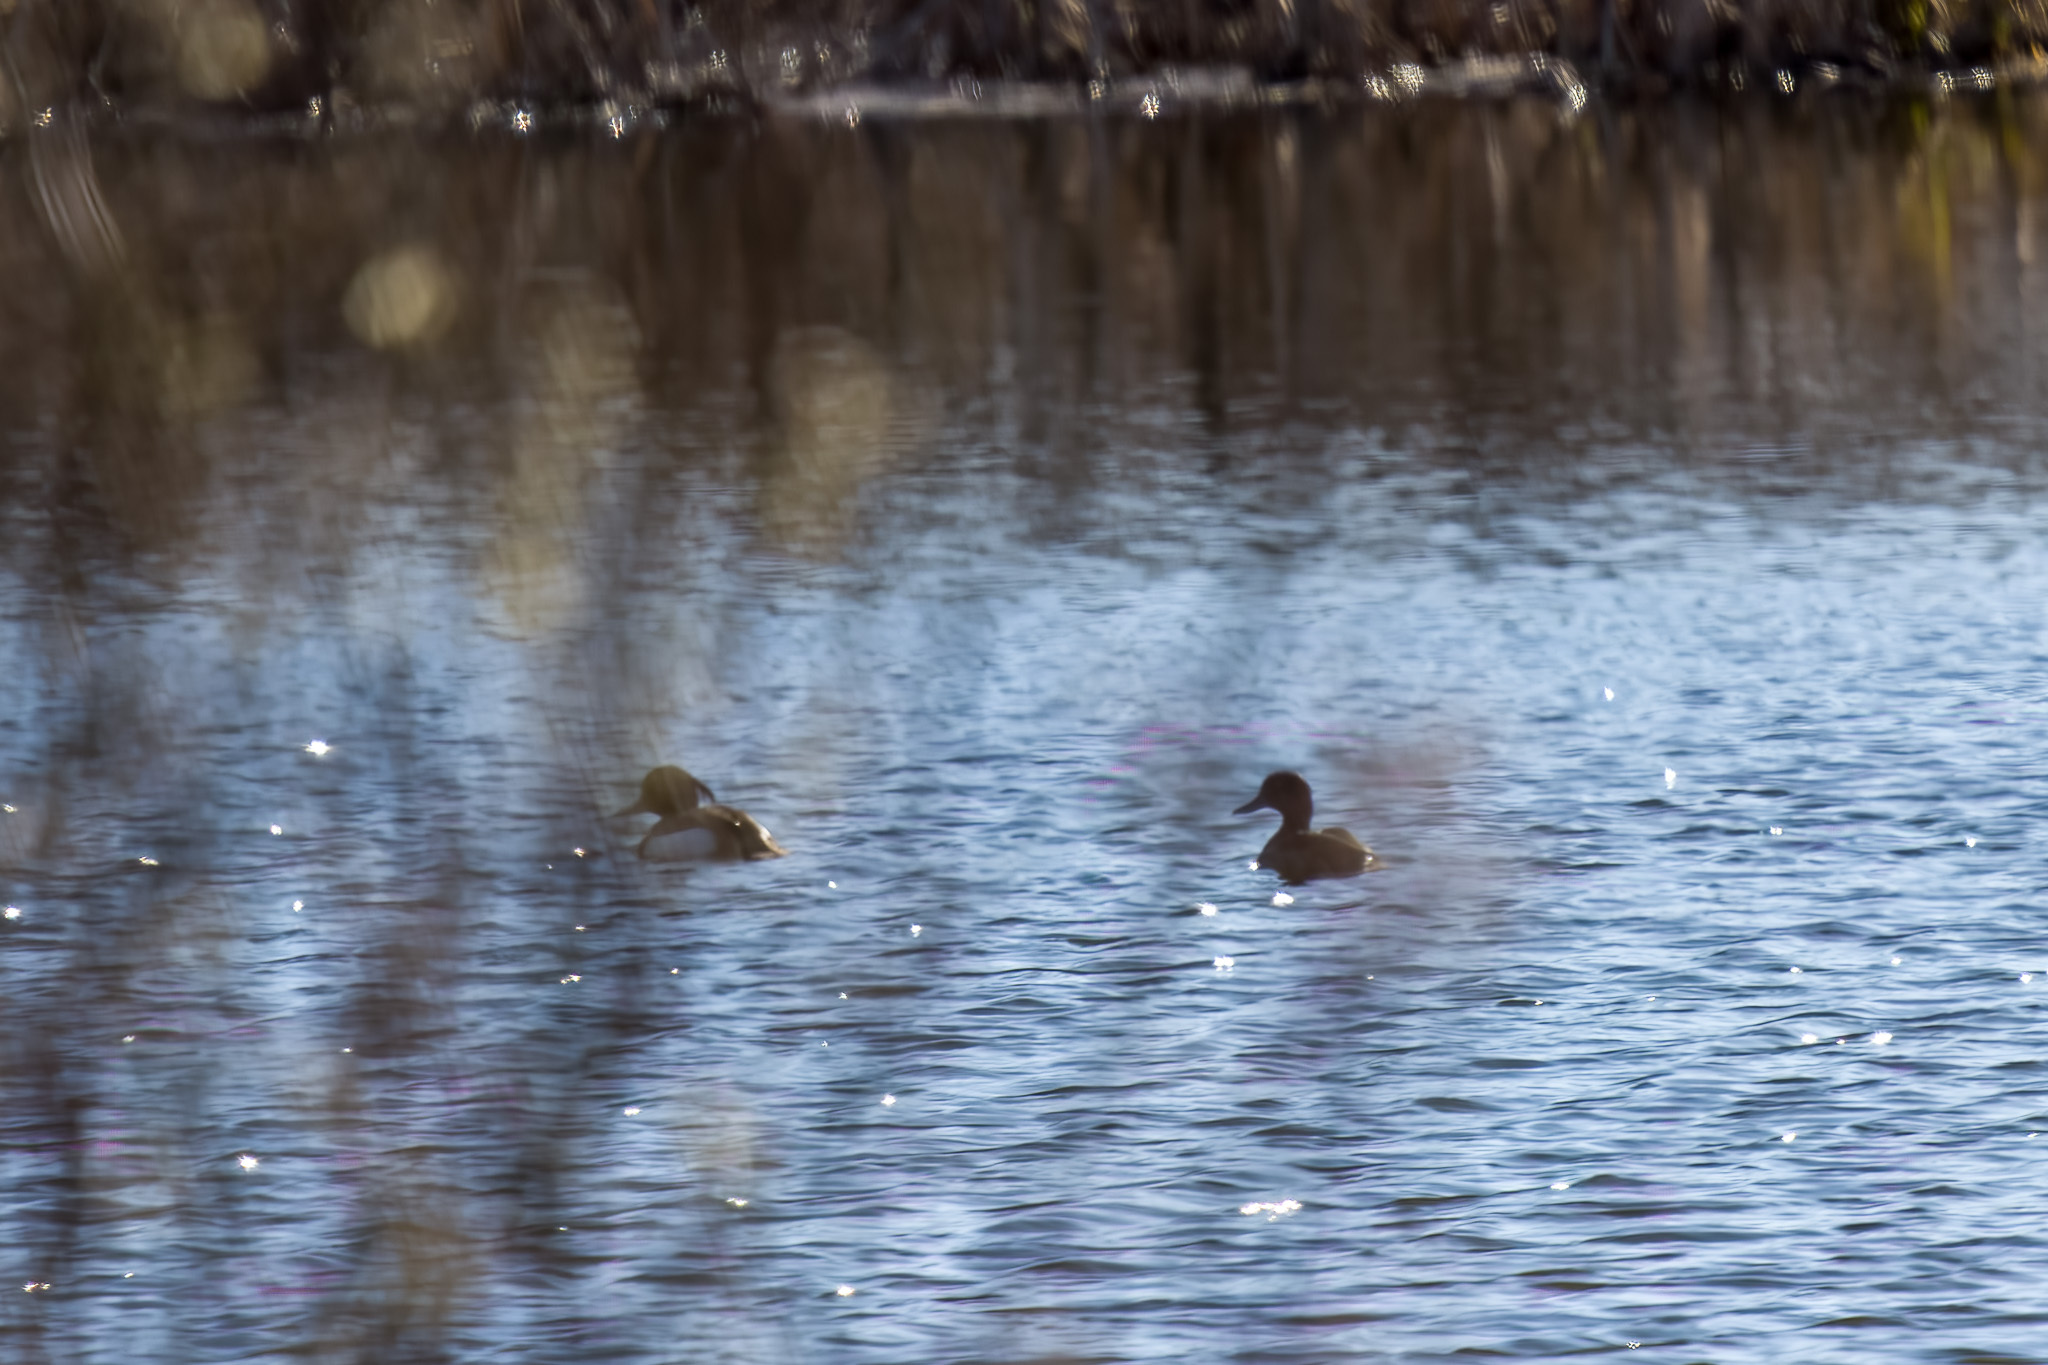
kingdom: Animalia
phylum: Chordata
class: Aves
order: Anseriformes
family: Anatidae
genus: Aythya
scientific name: Aythya fuligula
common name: Tufted duck
